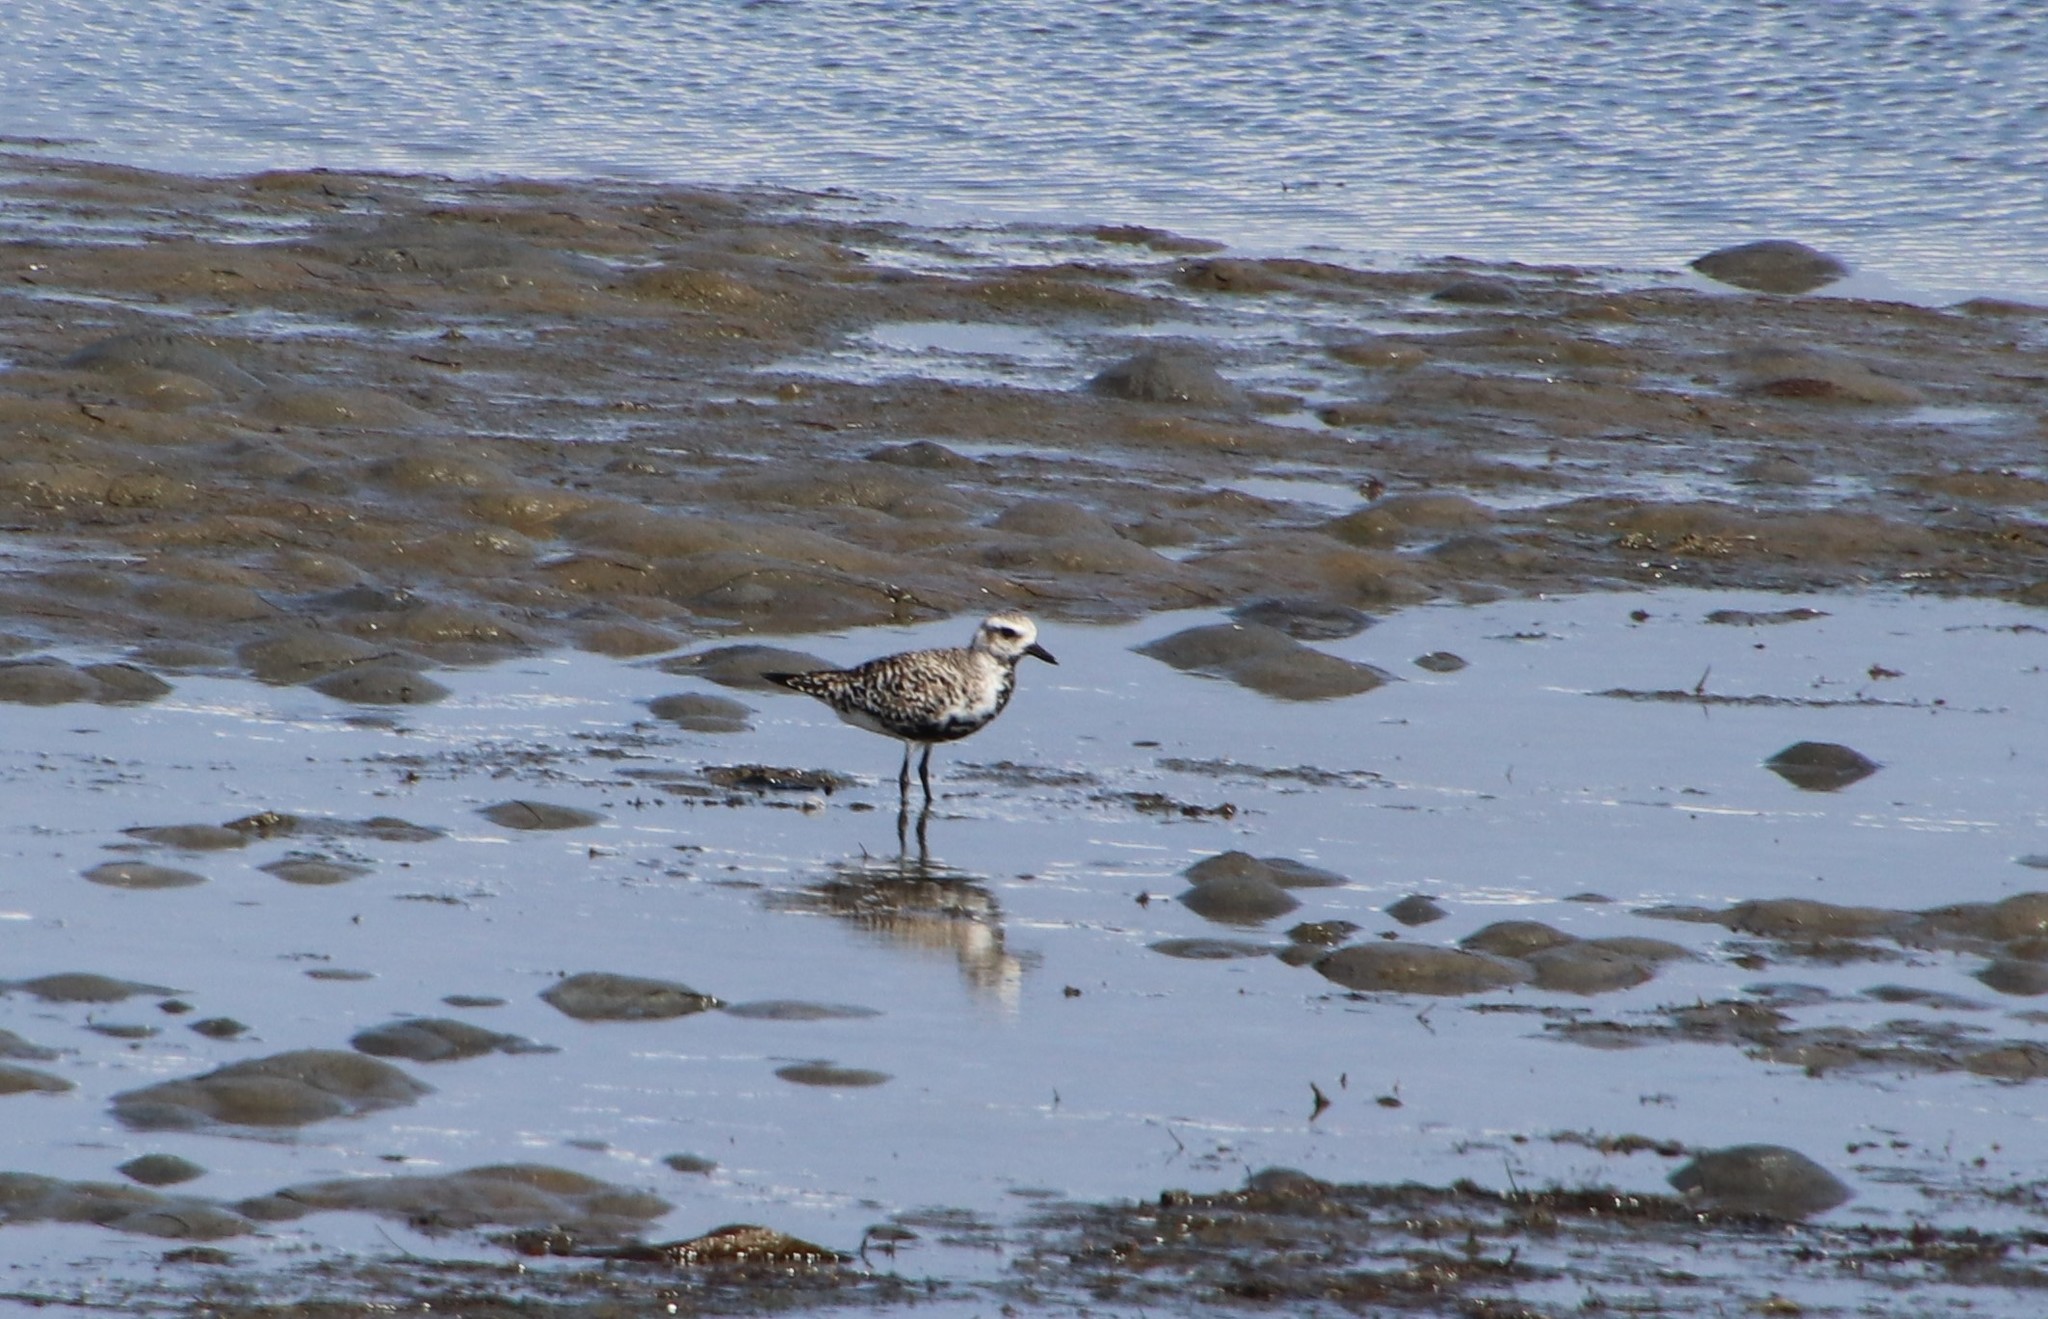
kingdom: Animalia
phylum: Chordata
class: Aves
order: Charadriiformes
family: Charadriidae
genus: Pluvialis
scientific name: Pluvialis squatarola
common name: Grey plover
